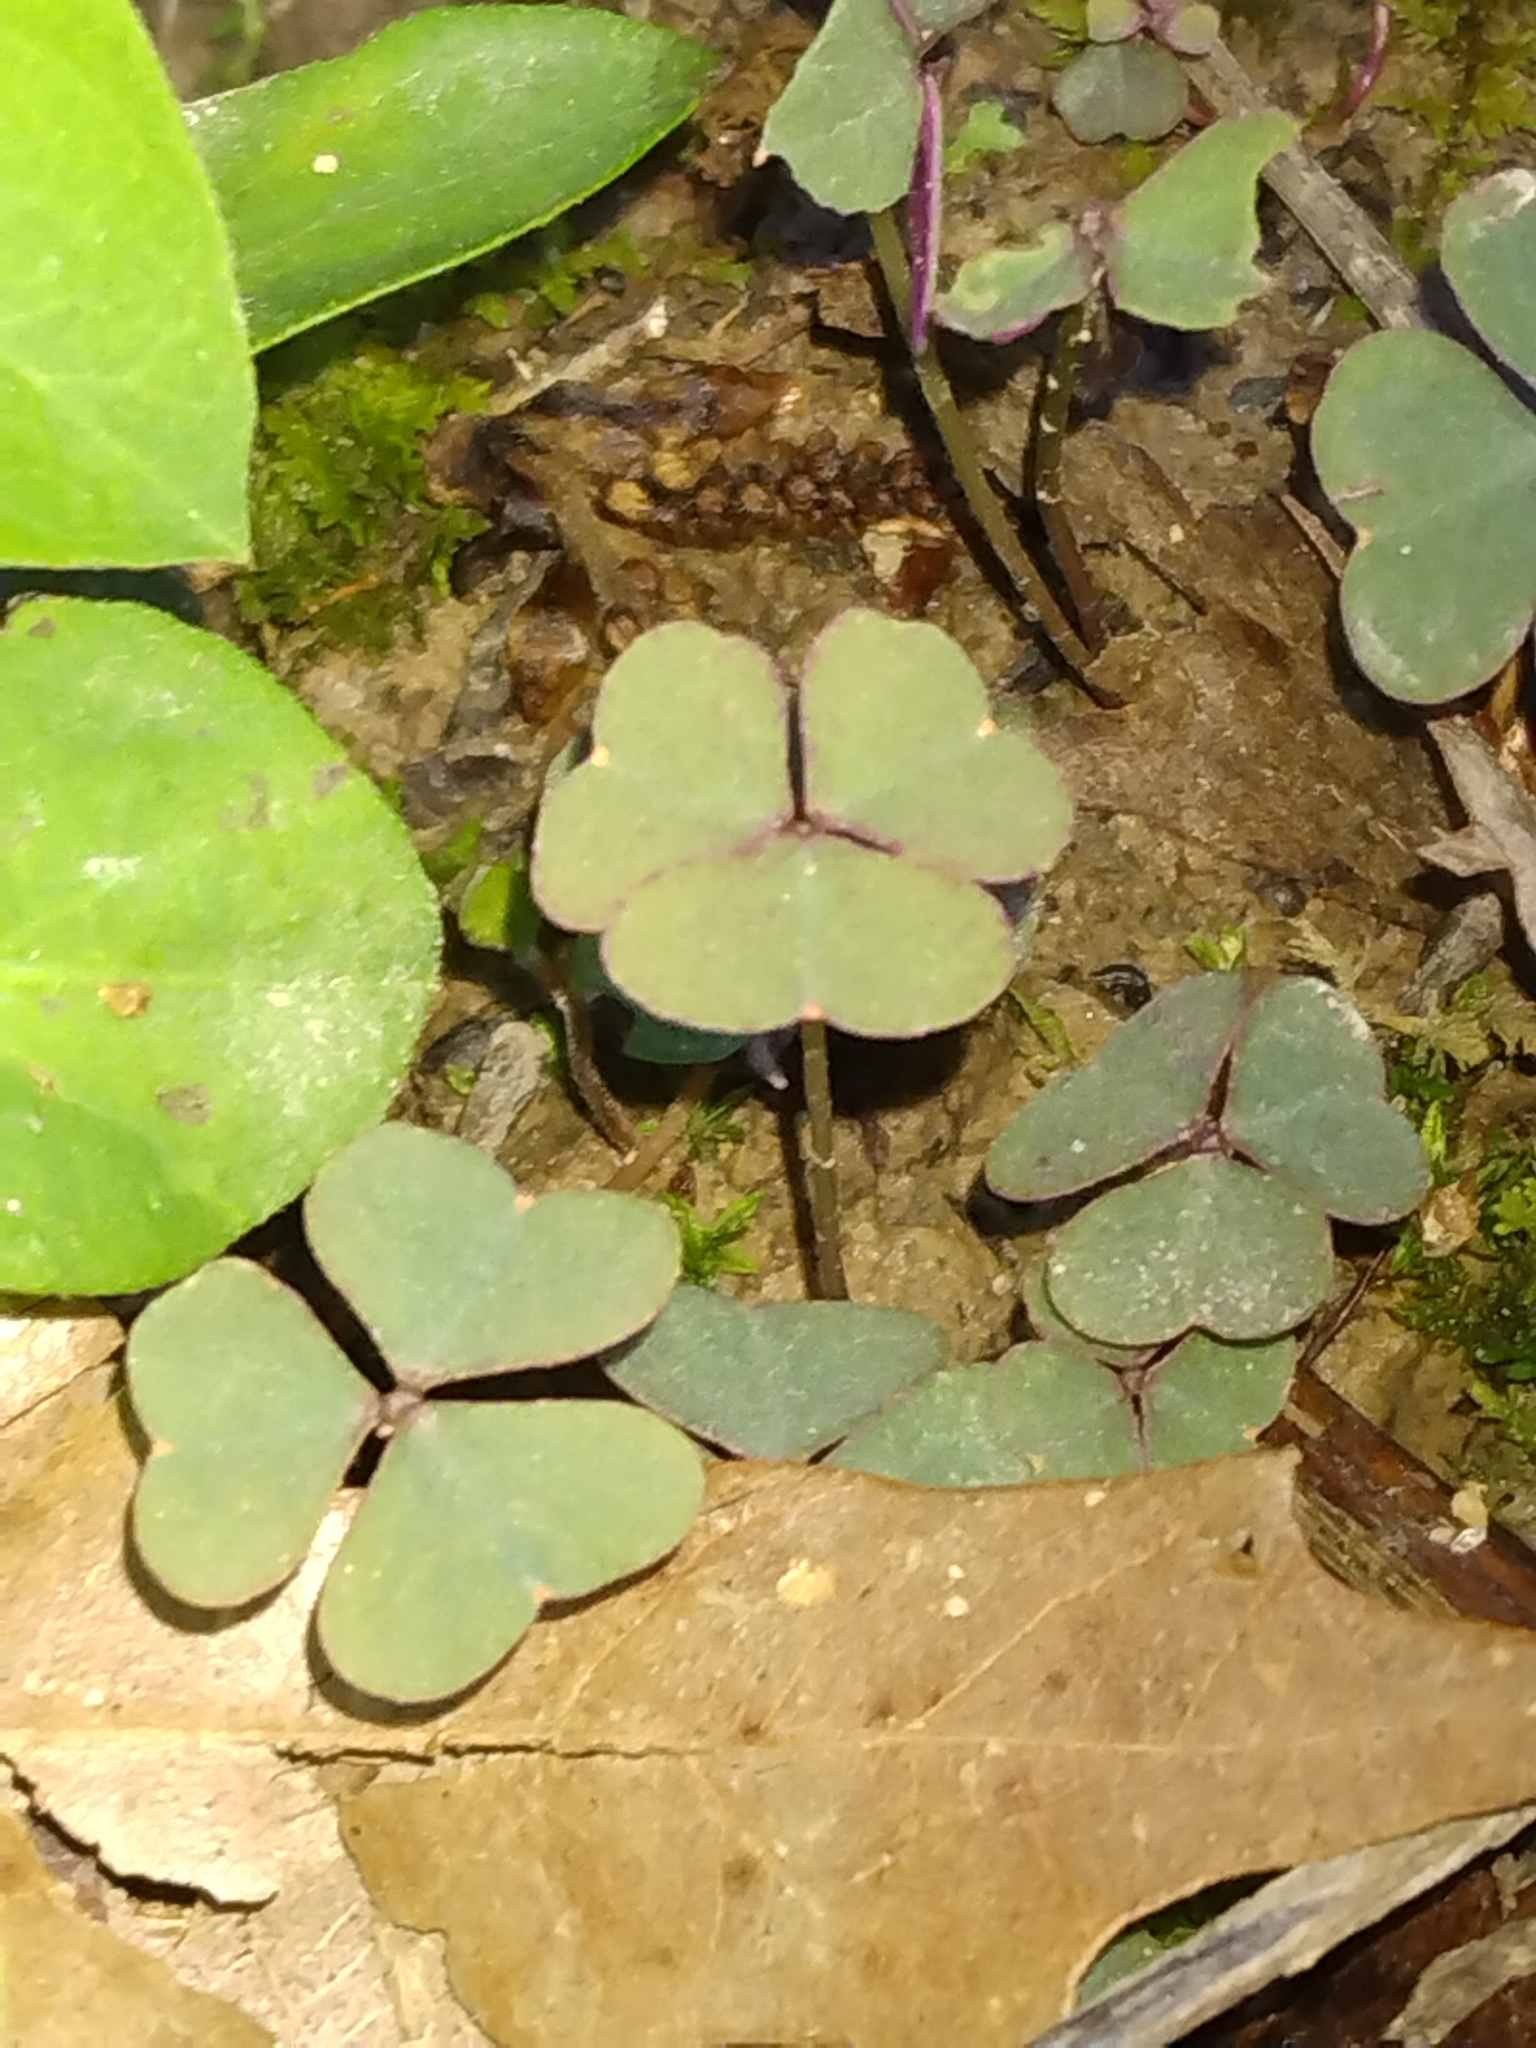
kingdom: Plantae
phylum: Tracheophyta
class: Magnoliopsida
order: Oxalidales
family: Oxalidaceae
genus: Oxalis
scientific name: Oxalis violacea
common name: Violet wood-sorrel
